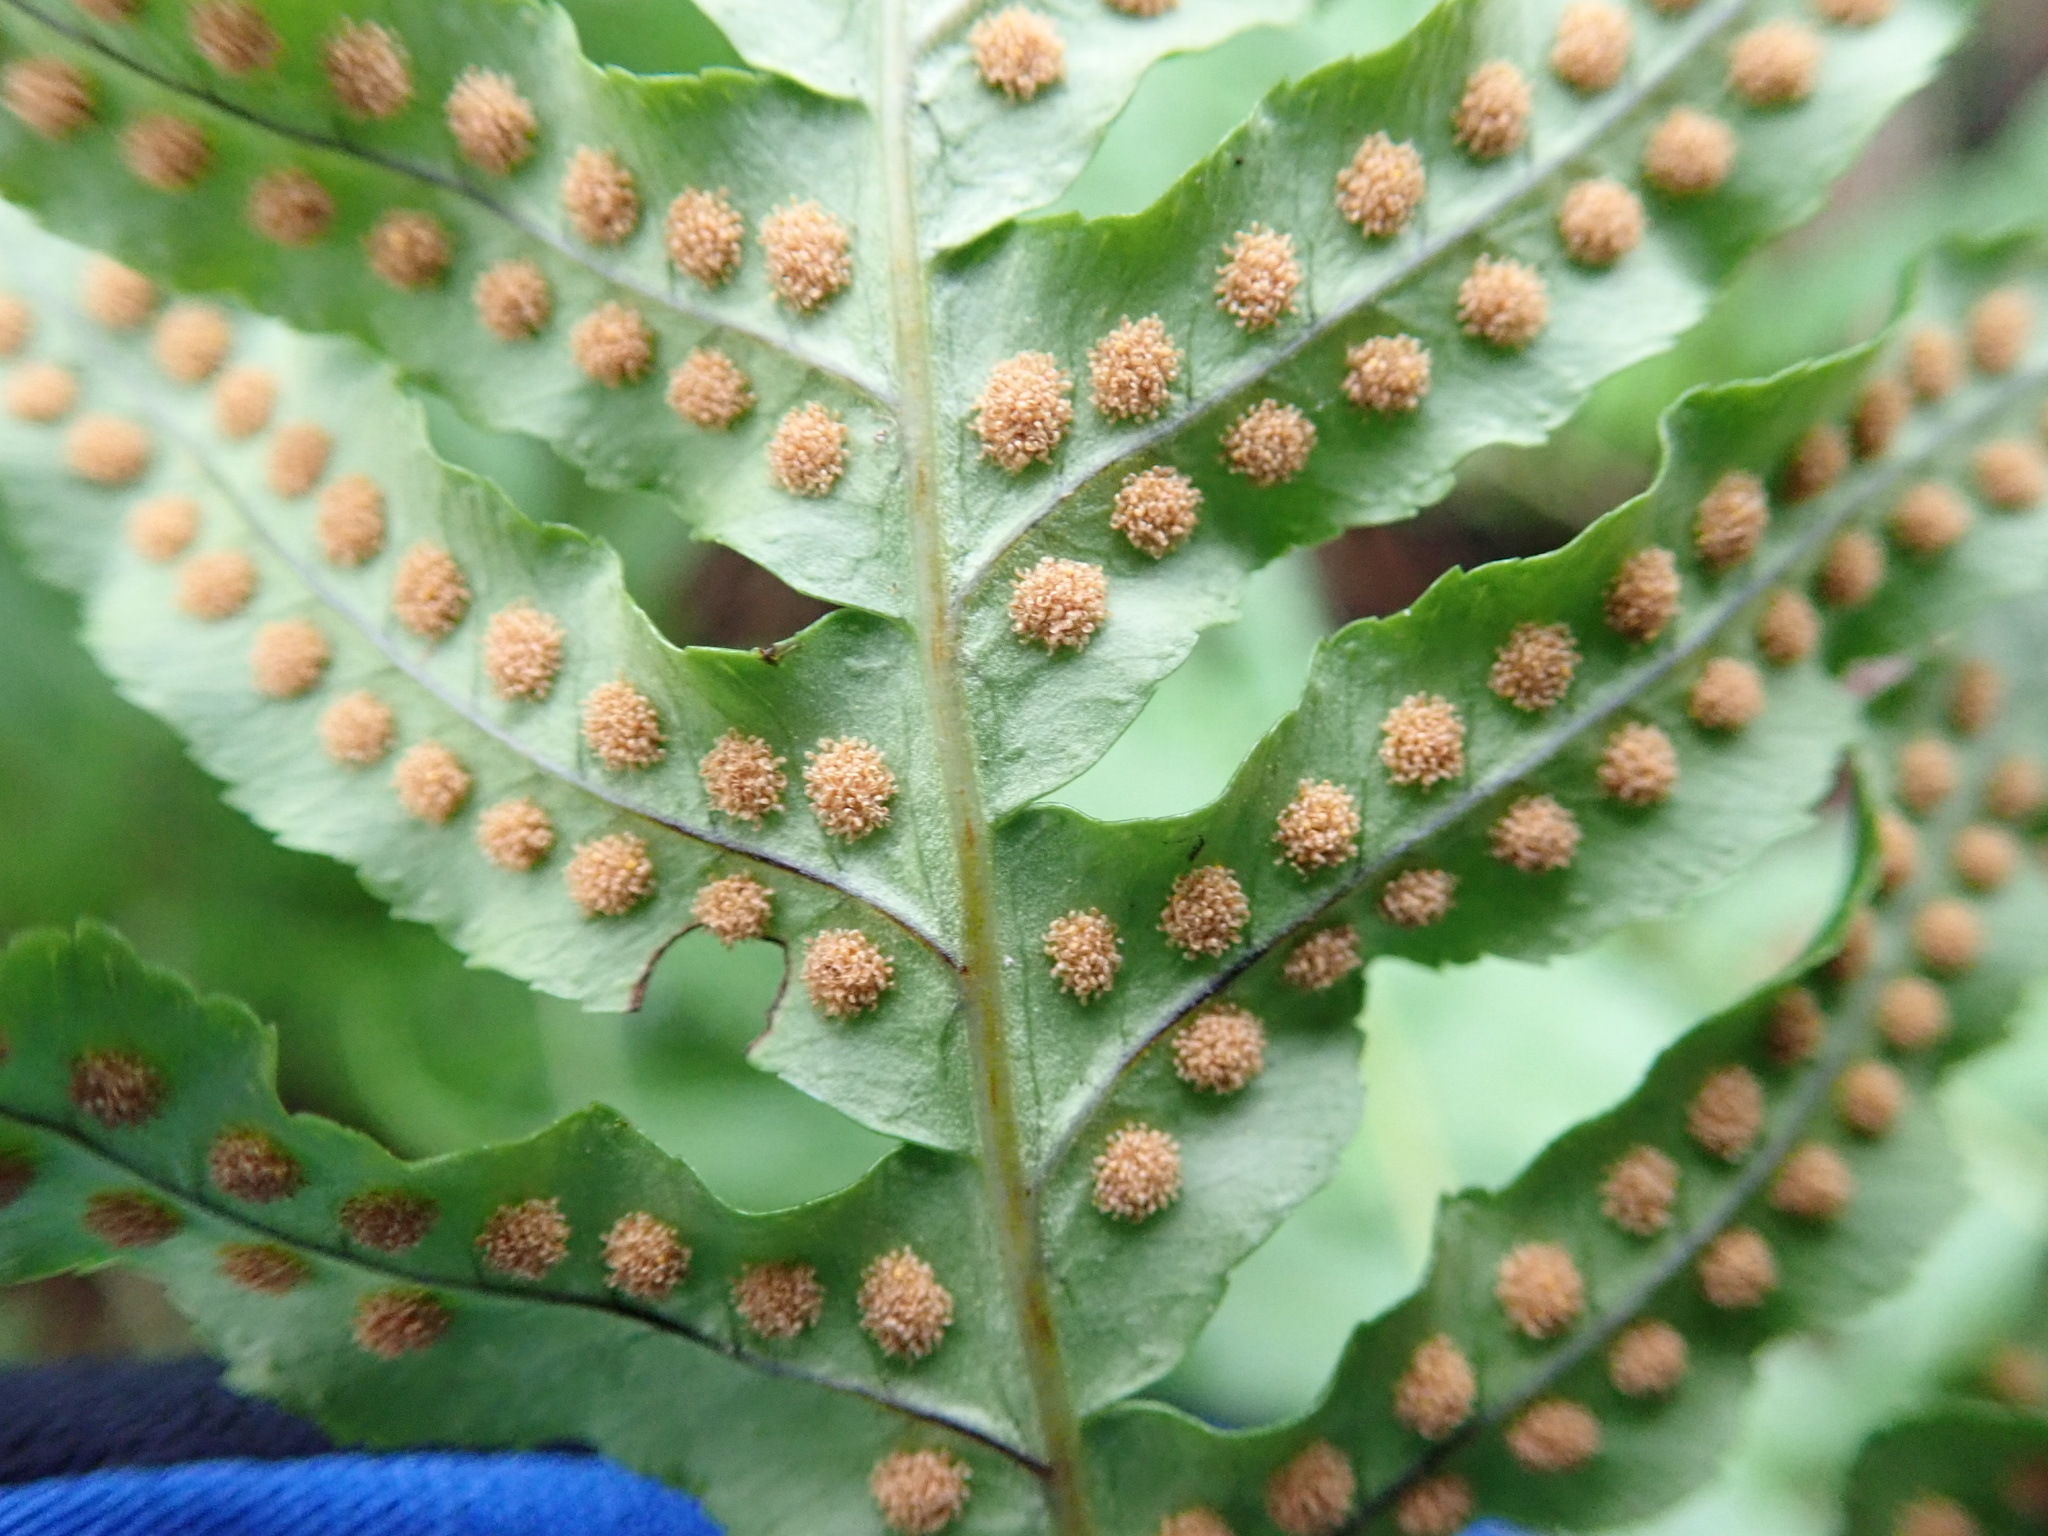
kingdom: Plantae
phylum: Tracheophyta
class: Polypodiopsida
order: Polypodiales
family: Polypodiaceae
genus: Polypodium
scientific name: Polypodium glycyrrhiza
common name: Licorice fern
